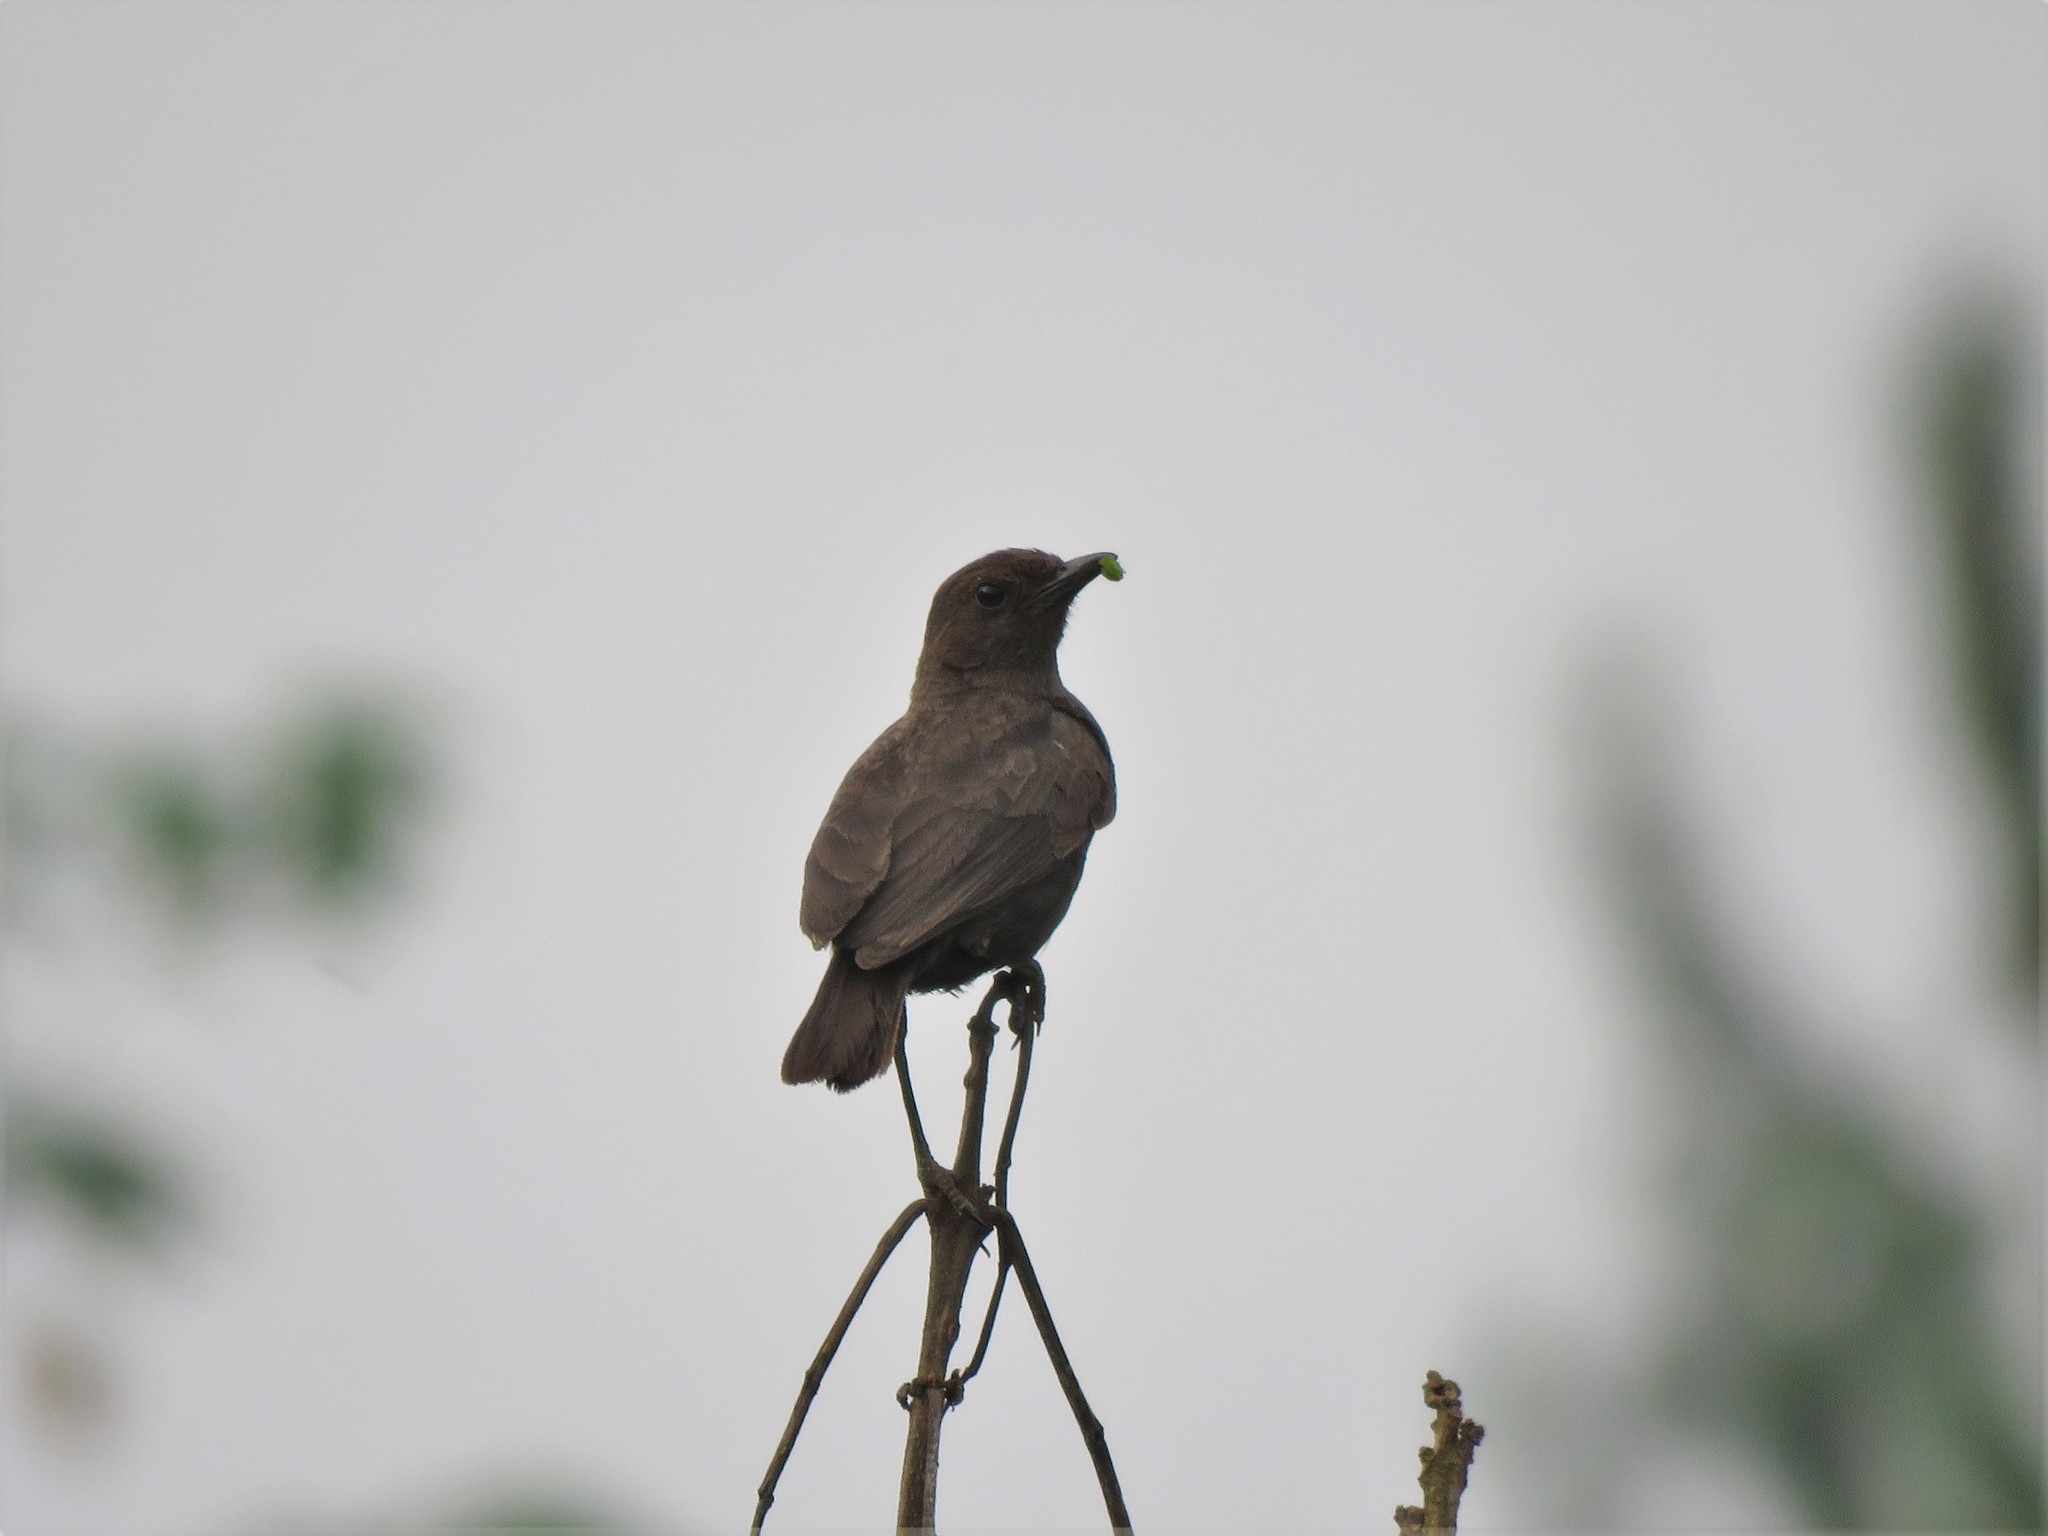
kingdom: Animalia
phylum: Chordata
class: Aves
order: Passeriformes
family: Muscicapidae
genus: Myrmecocichla
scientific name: Myrmecocichla nigra
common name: Sooty chat
